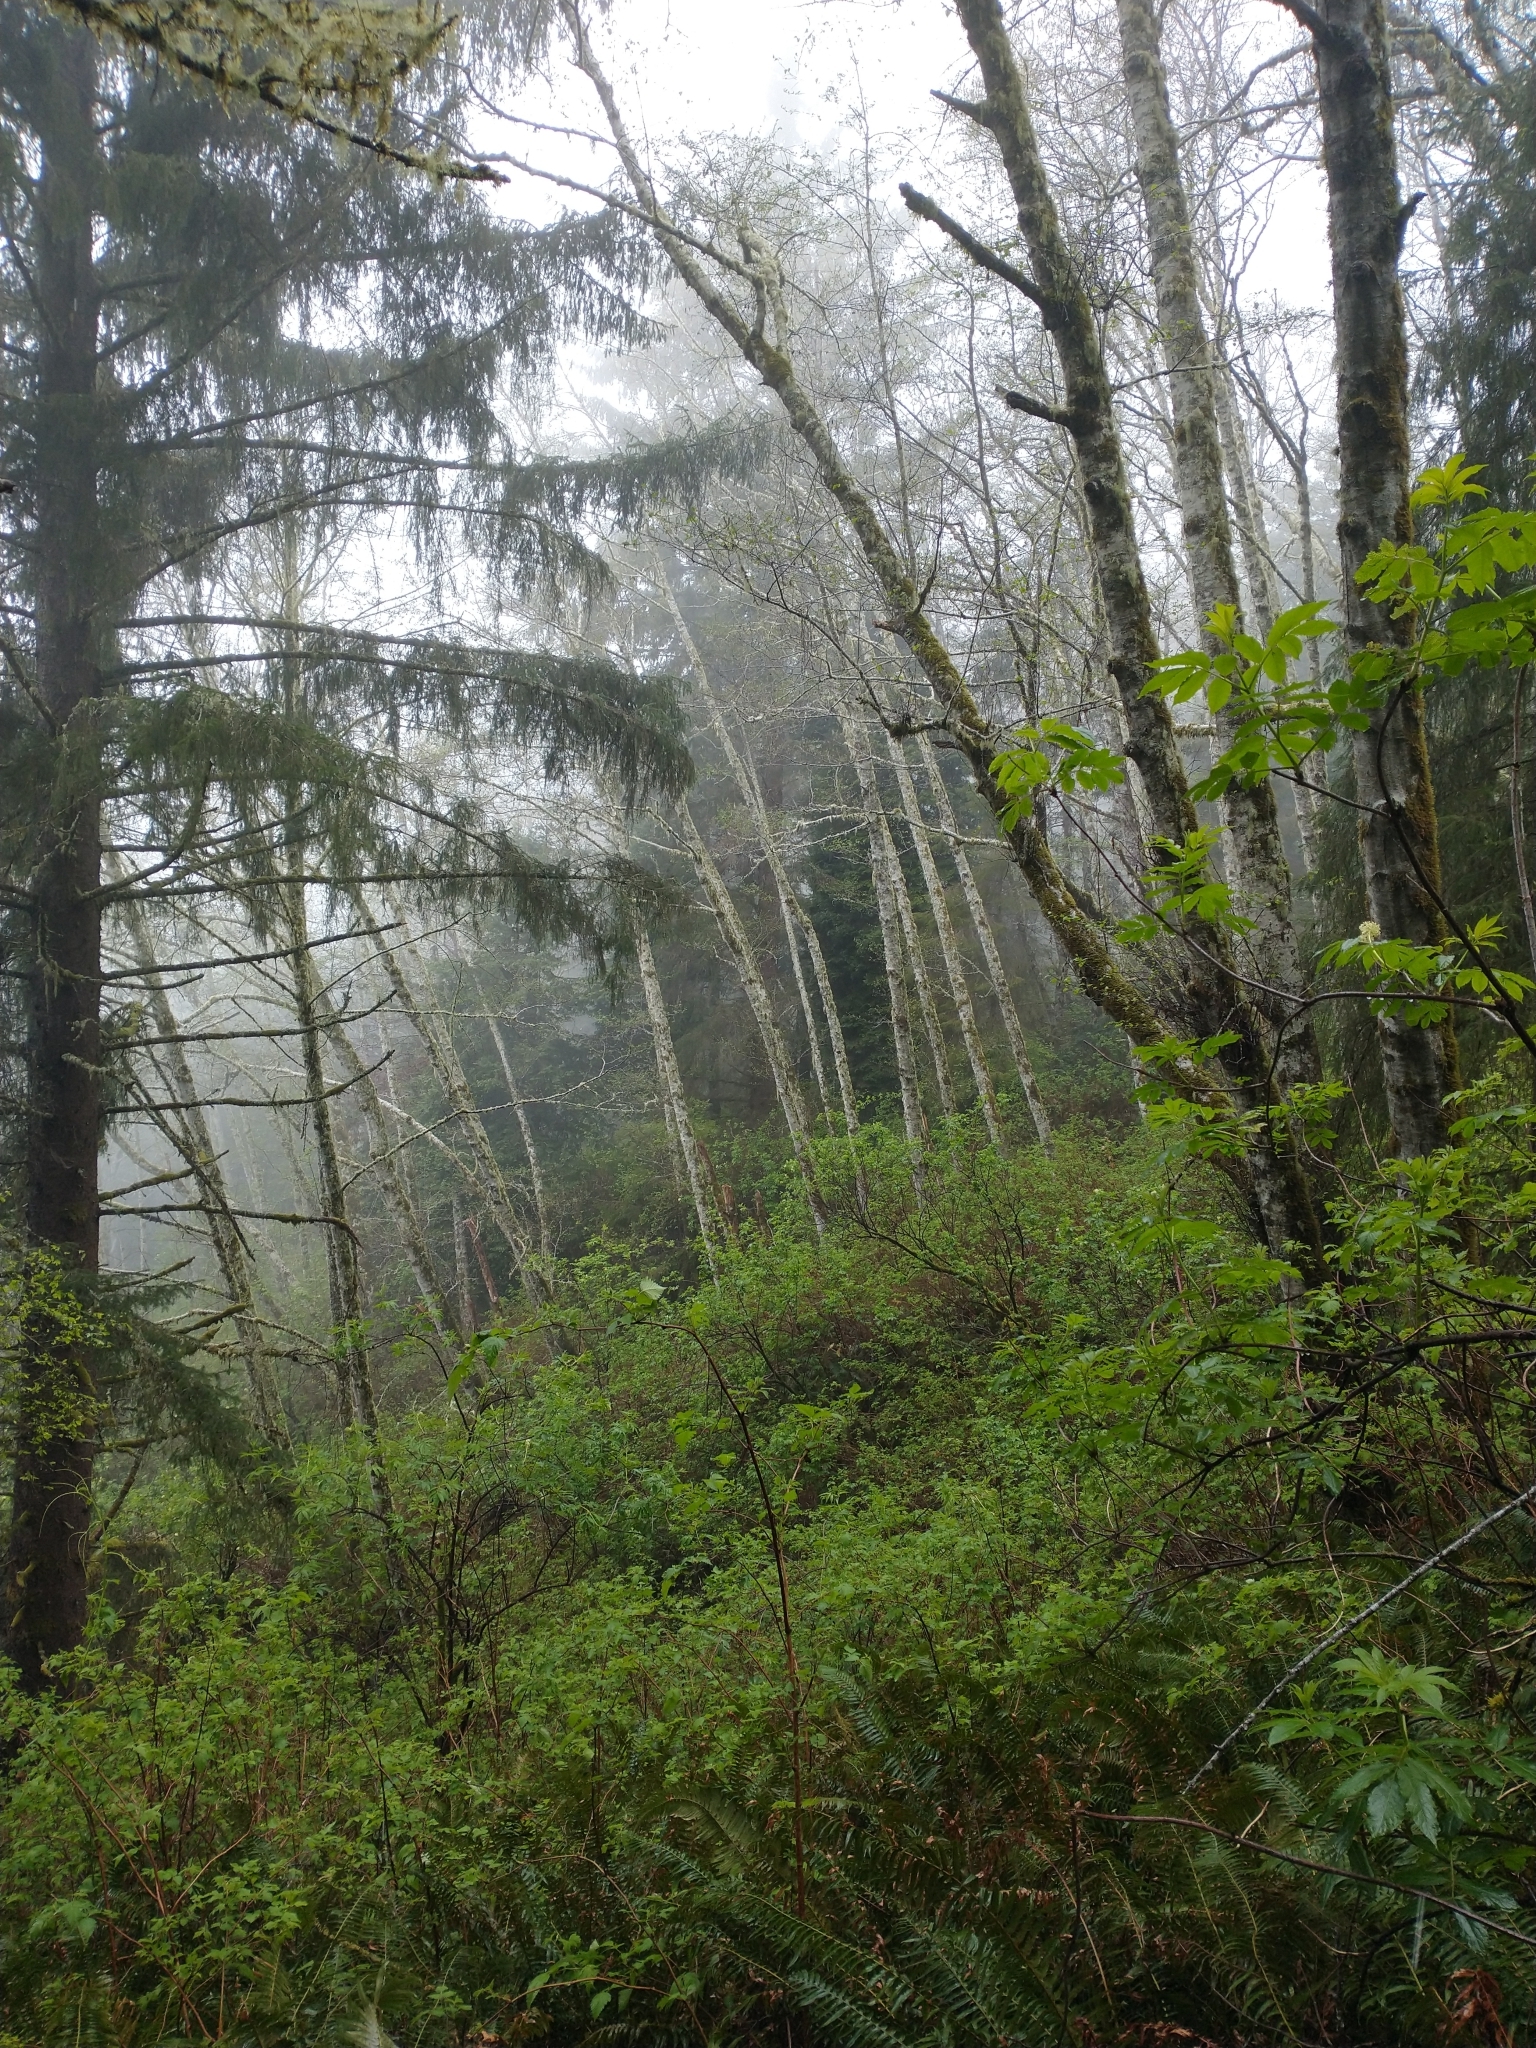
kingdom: Plantae
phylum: Tracheophyta
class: Magnoliopsida
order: Rosales
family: Rosaceae
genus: Rubus
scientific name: Rubus spectabilis
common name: Salmonberry
